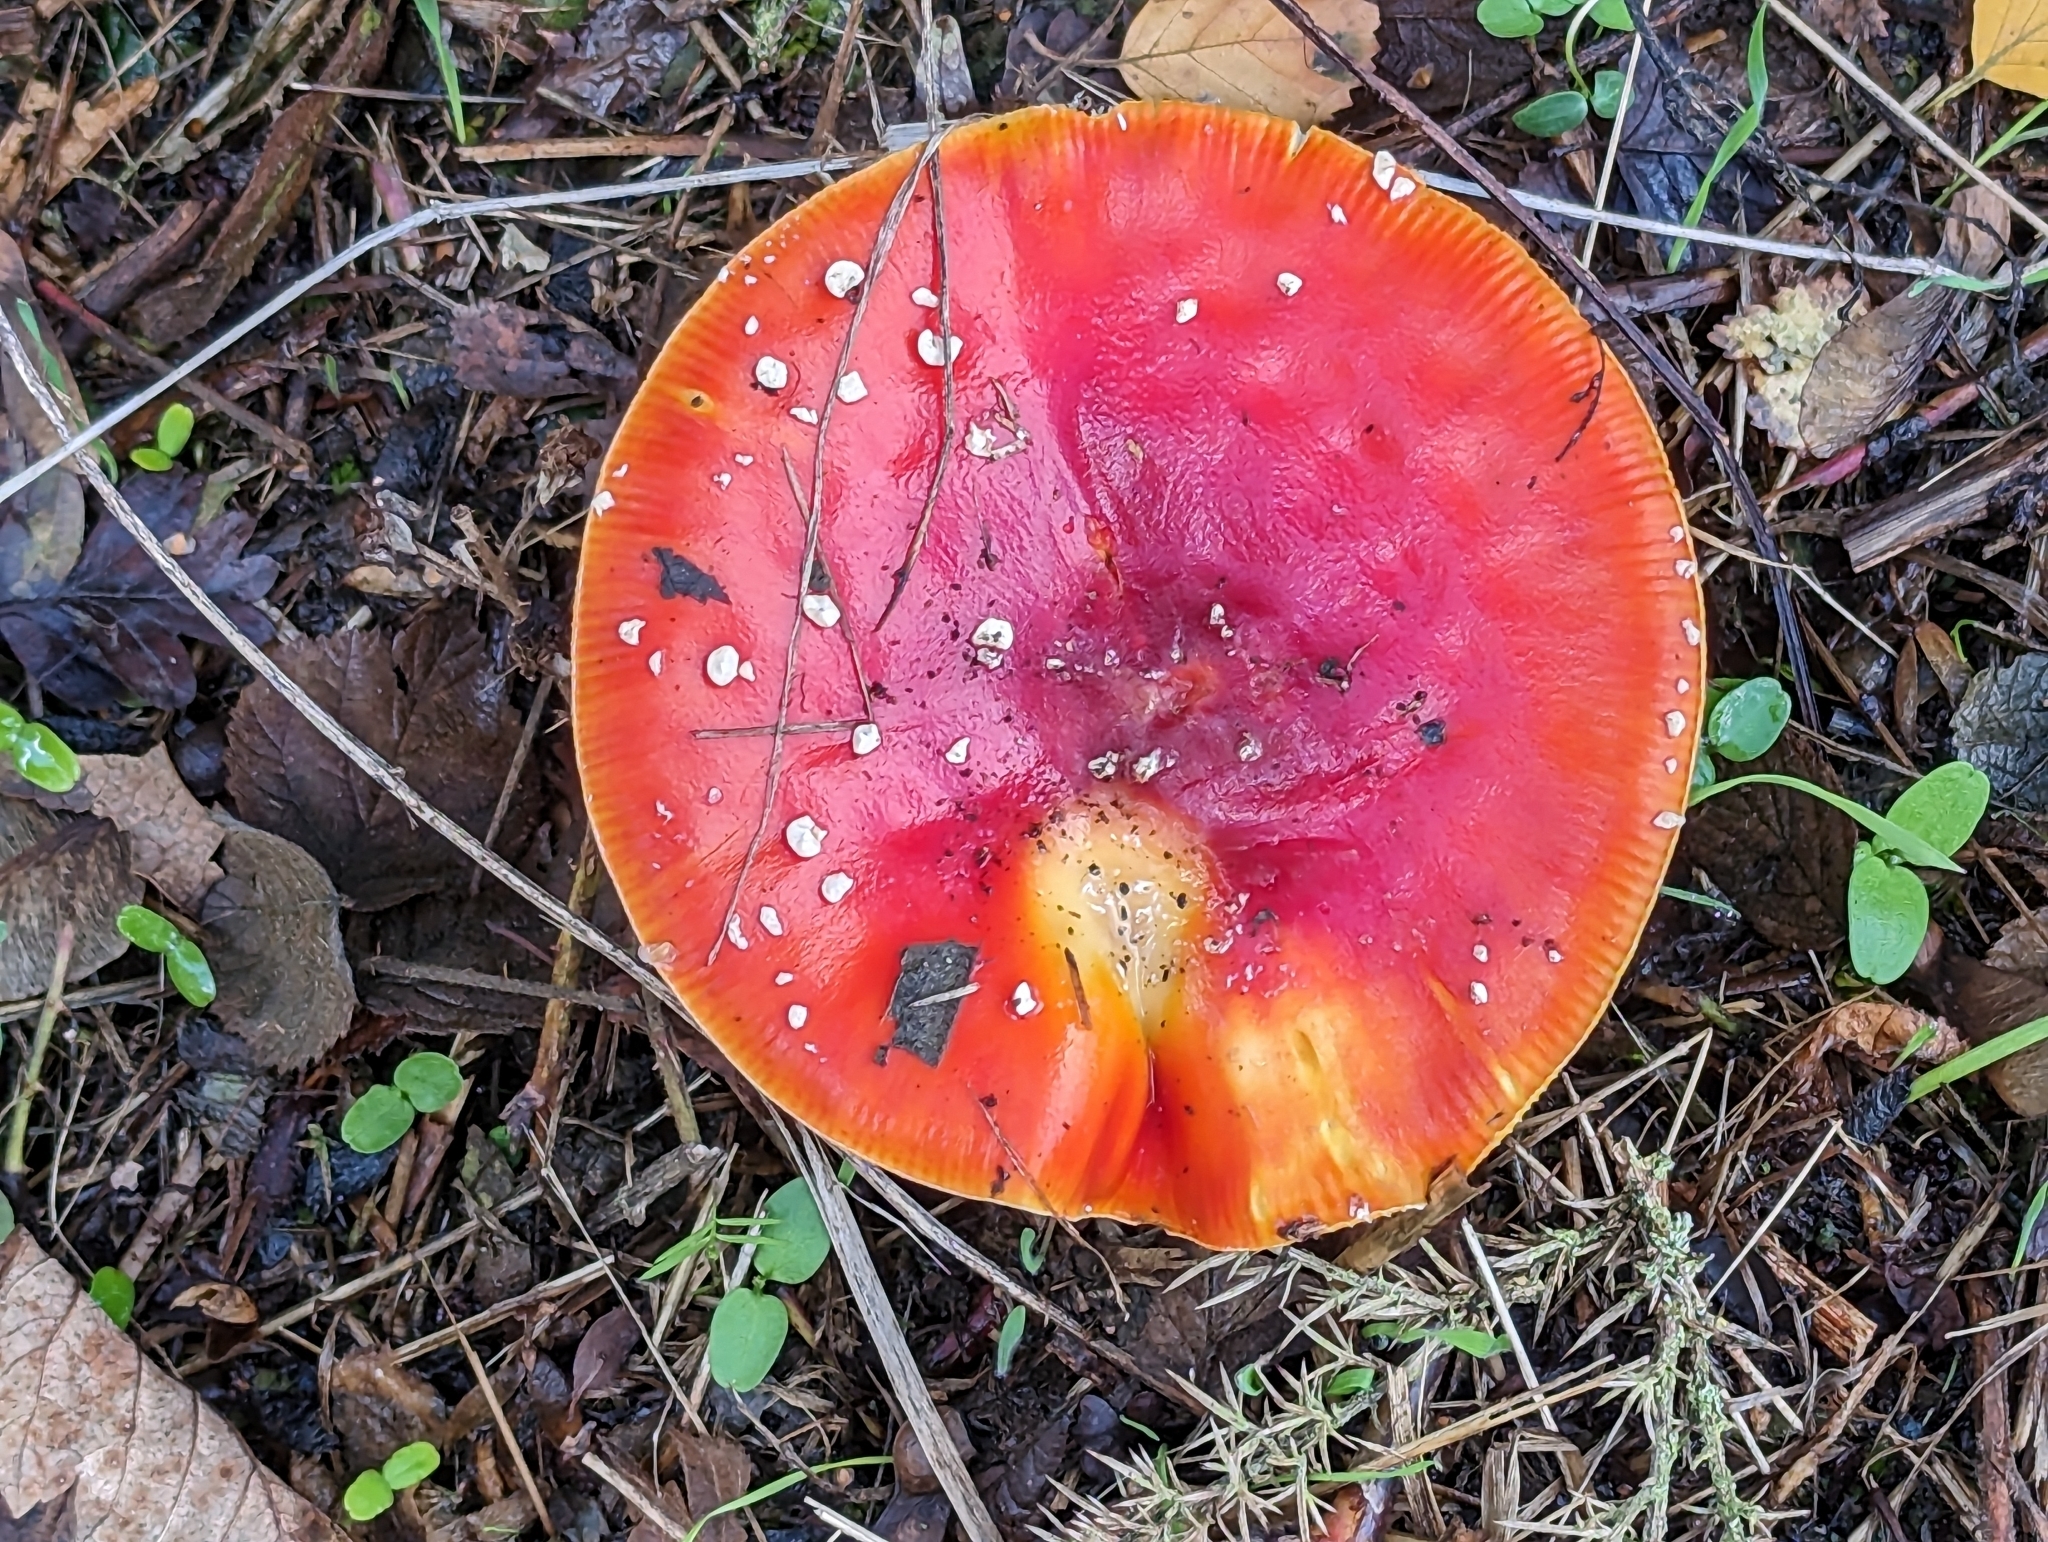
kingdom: Fungi
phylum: Basidiomycota
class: Agaricomycetes
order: Agaricales
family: Amanitaceae
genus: Amanita
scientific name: Amanita muscaria
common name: Fly agaric
